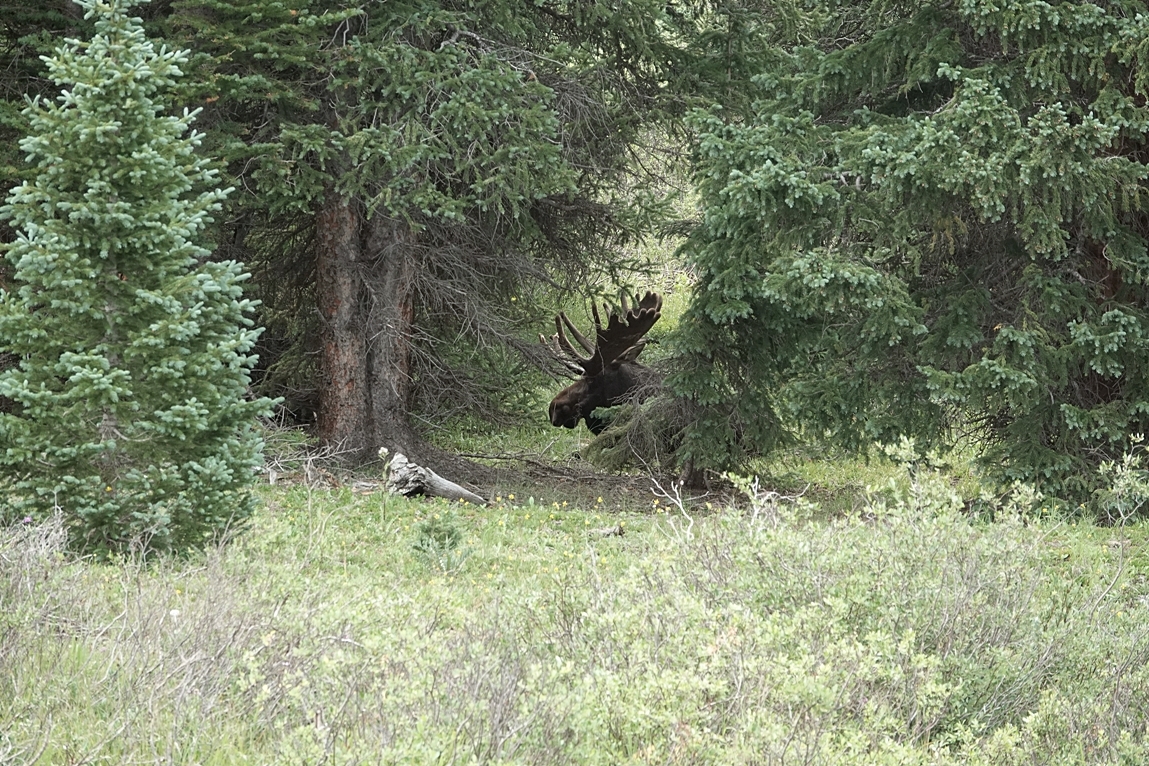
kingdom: Animalia
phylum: Chordata
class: Mammalia
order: Artiodactyla
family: Cervidae
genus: Alces
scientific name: Alces alces
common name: Moose
